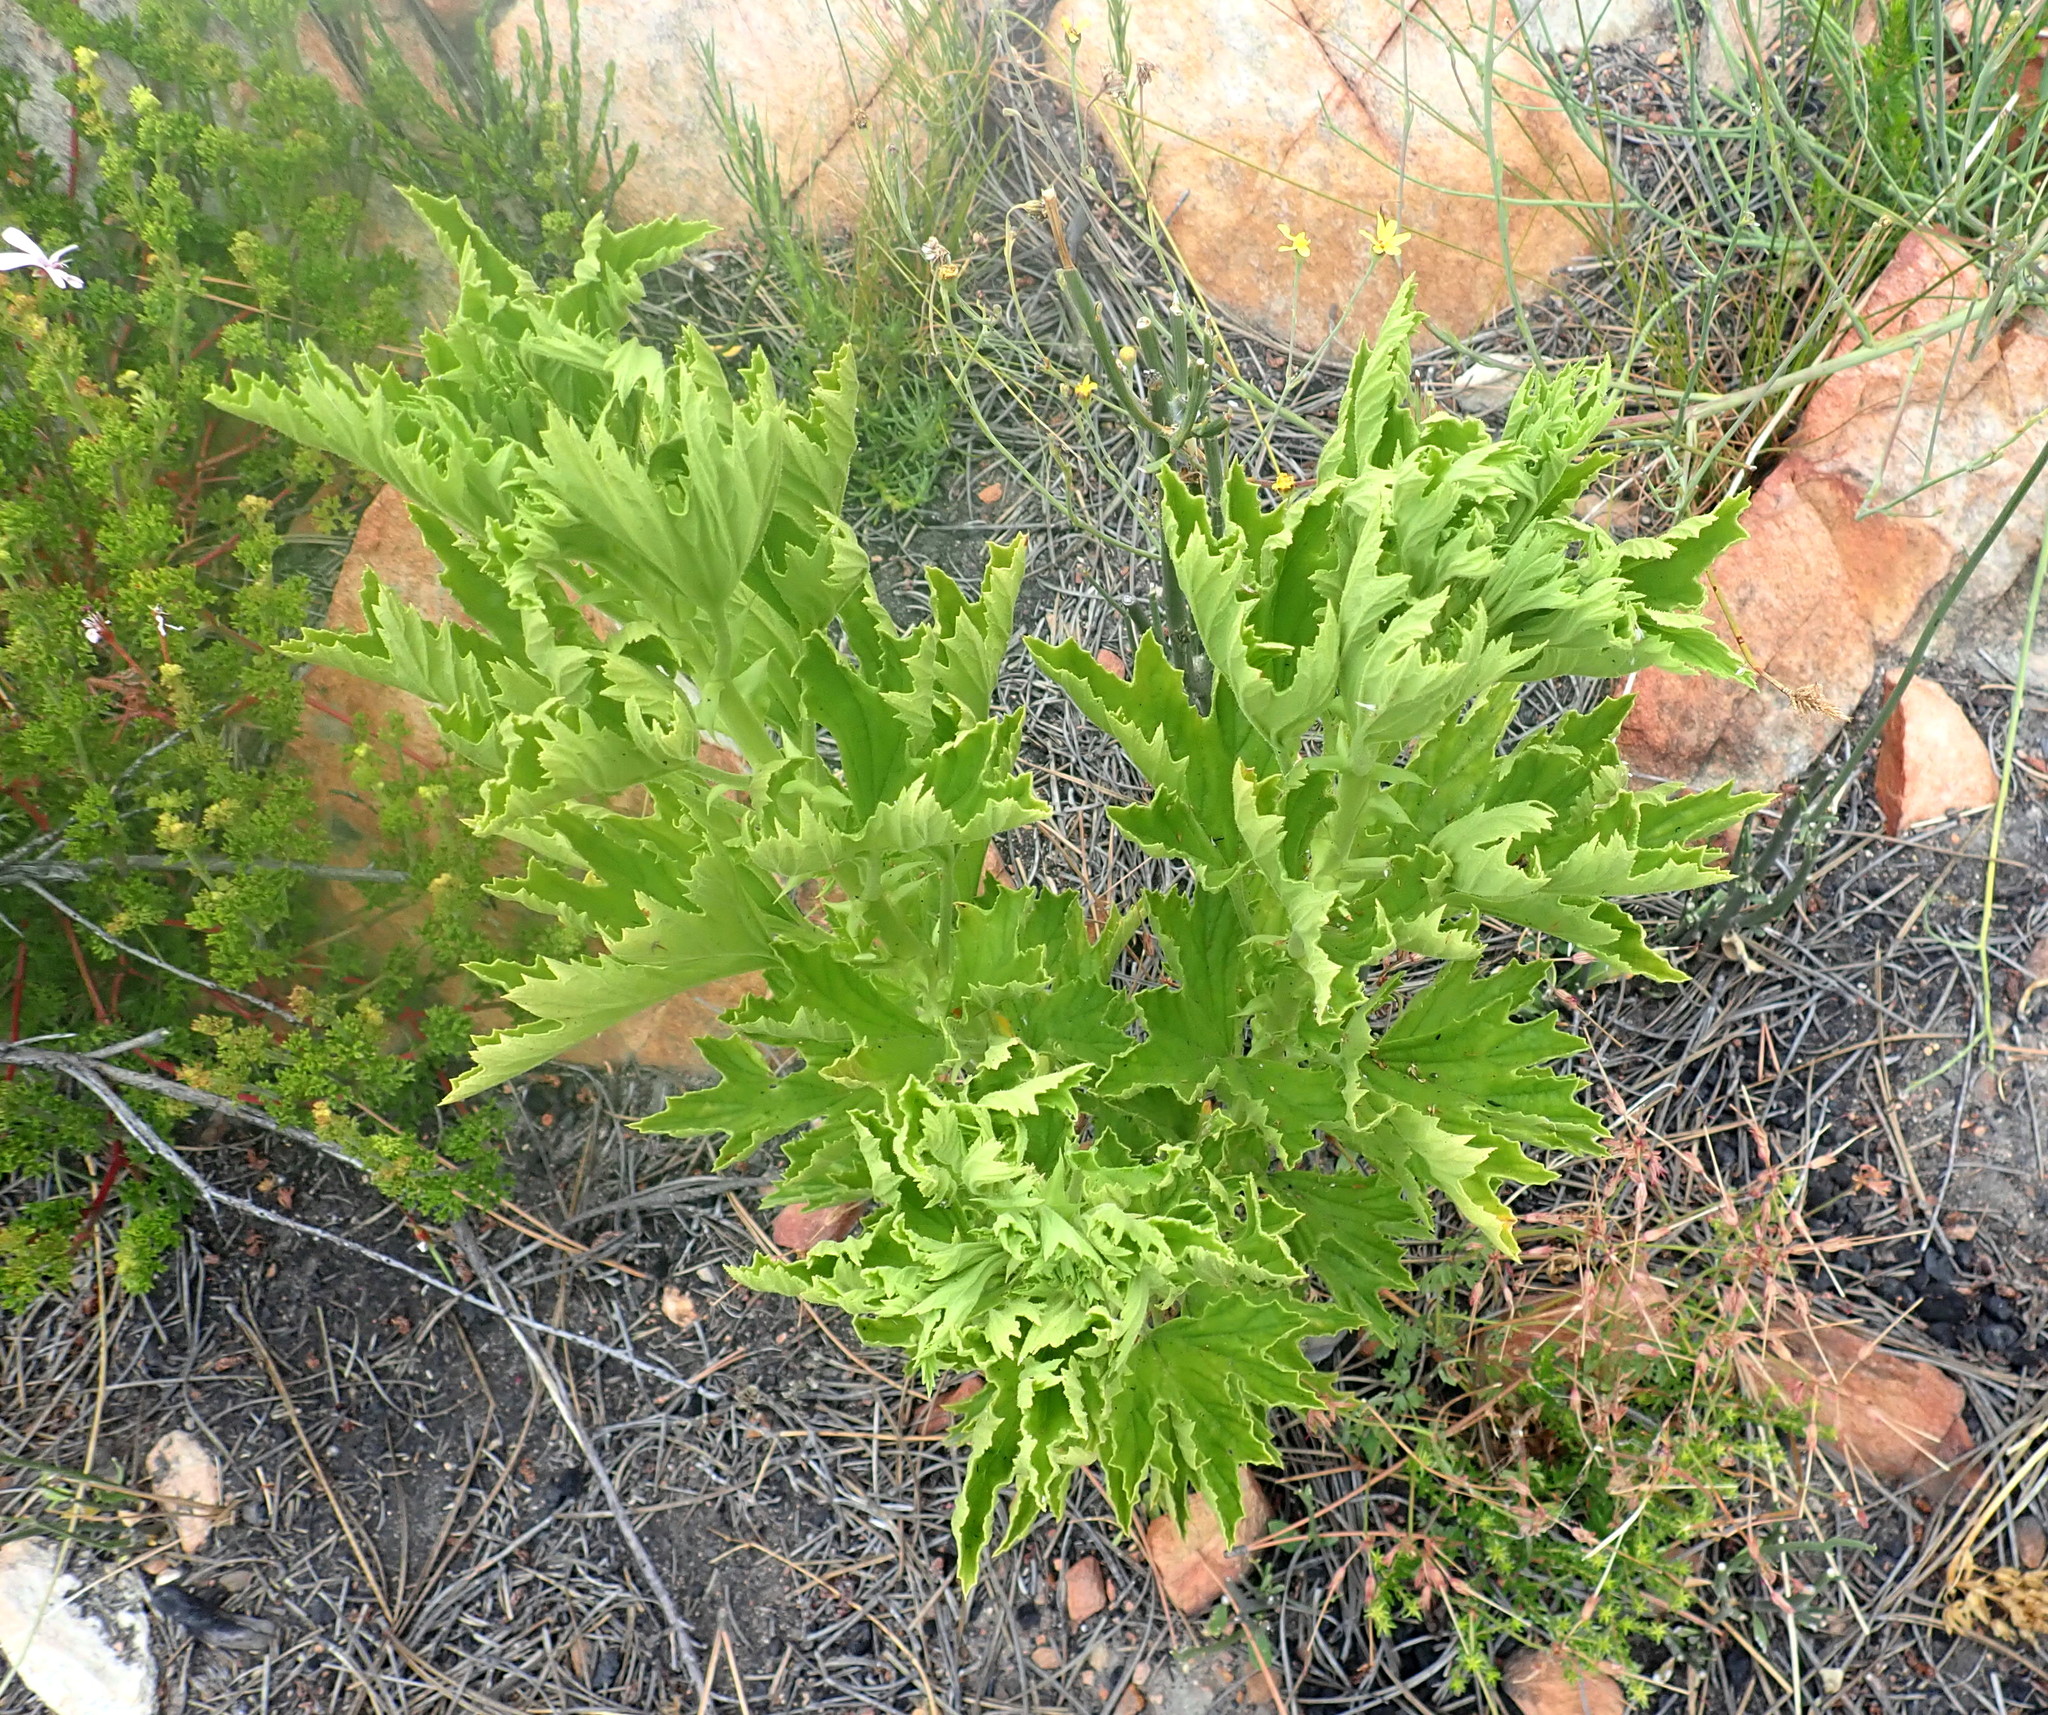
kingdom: Plantae
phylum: Tracheophyta
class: Magnoliopsida
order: Geraniales
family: Geraniaceae
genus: Pelargonium
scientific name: Pelargonium scabrum
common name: Apricot geranium
